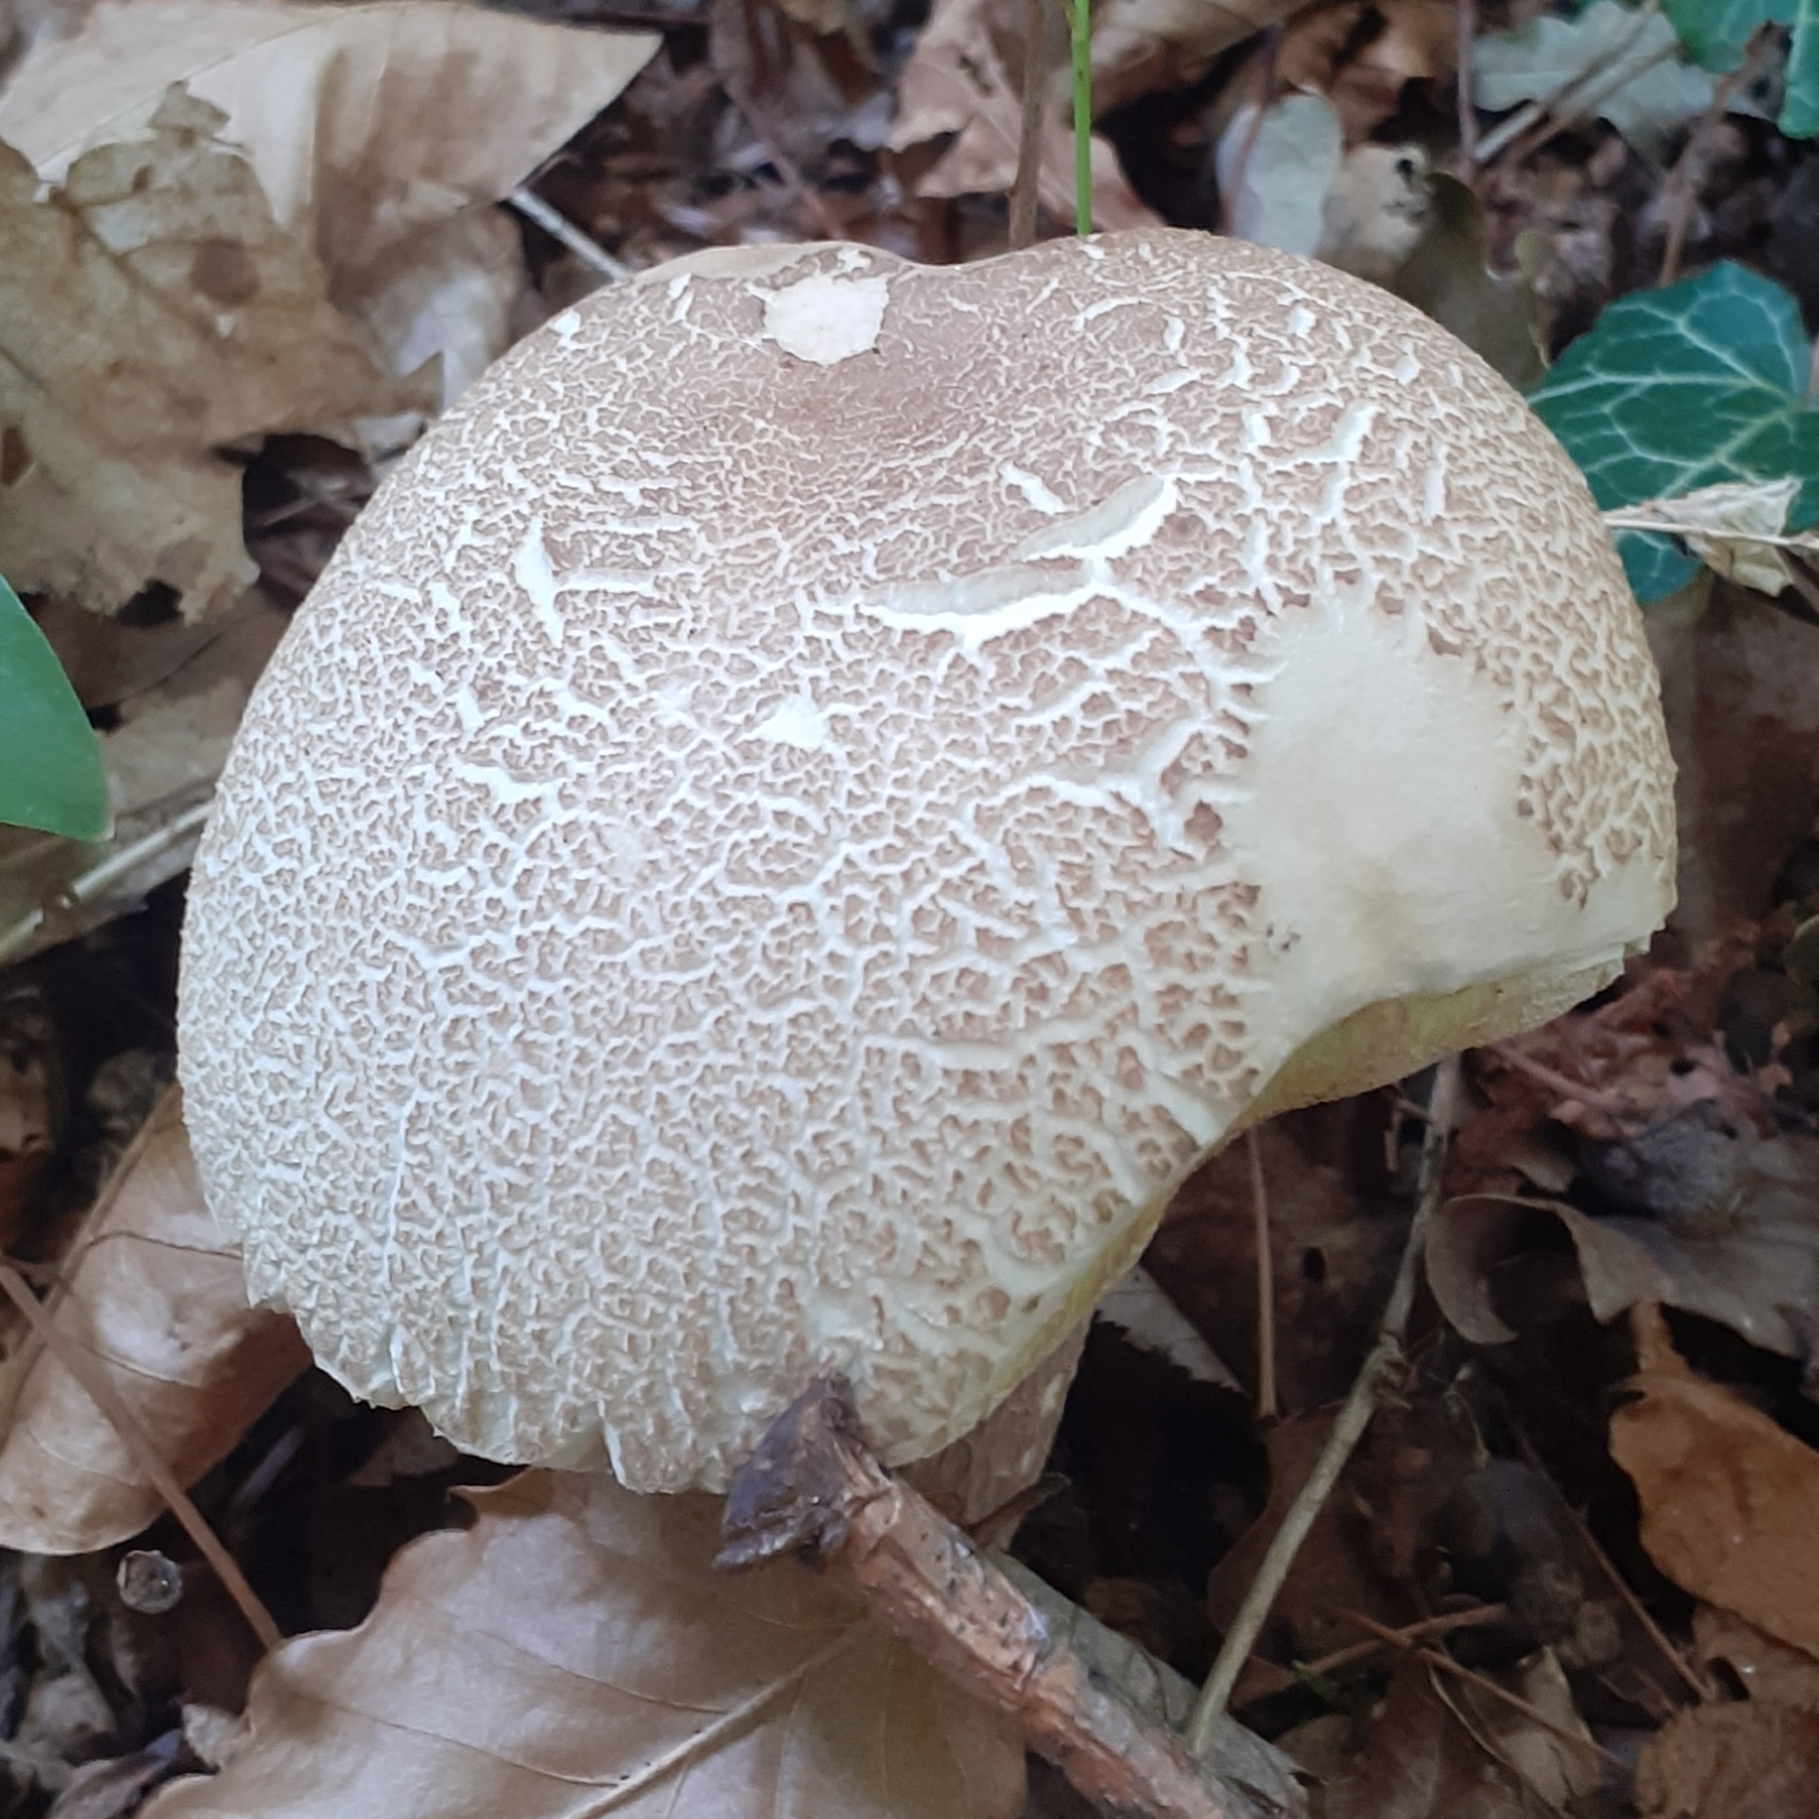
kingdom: Fungi
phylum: Basidiomycota
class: Agaricomycetes
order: Boletales
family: Boletaceae
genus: Boletus
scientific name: Boletus reticulatus
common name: Summer bolete
